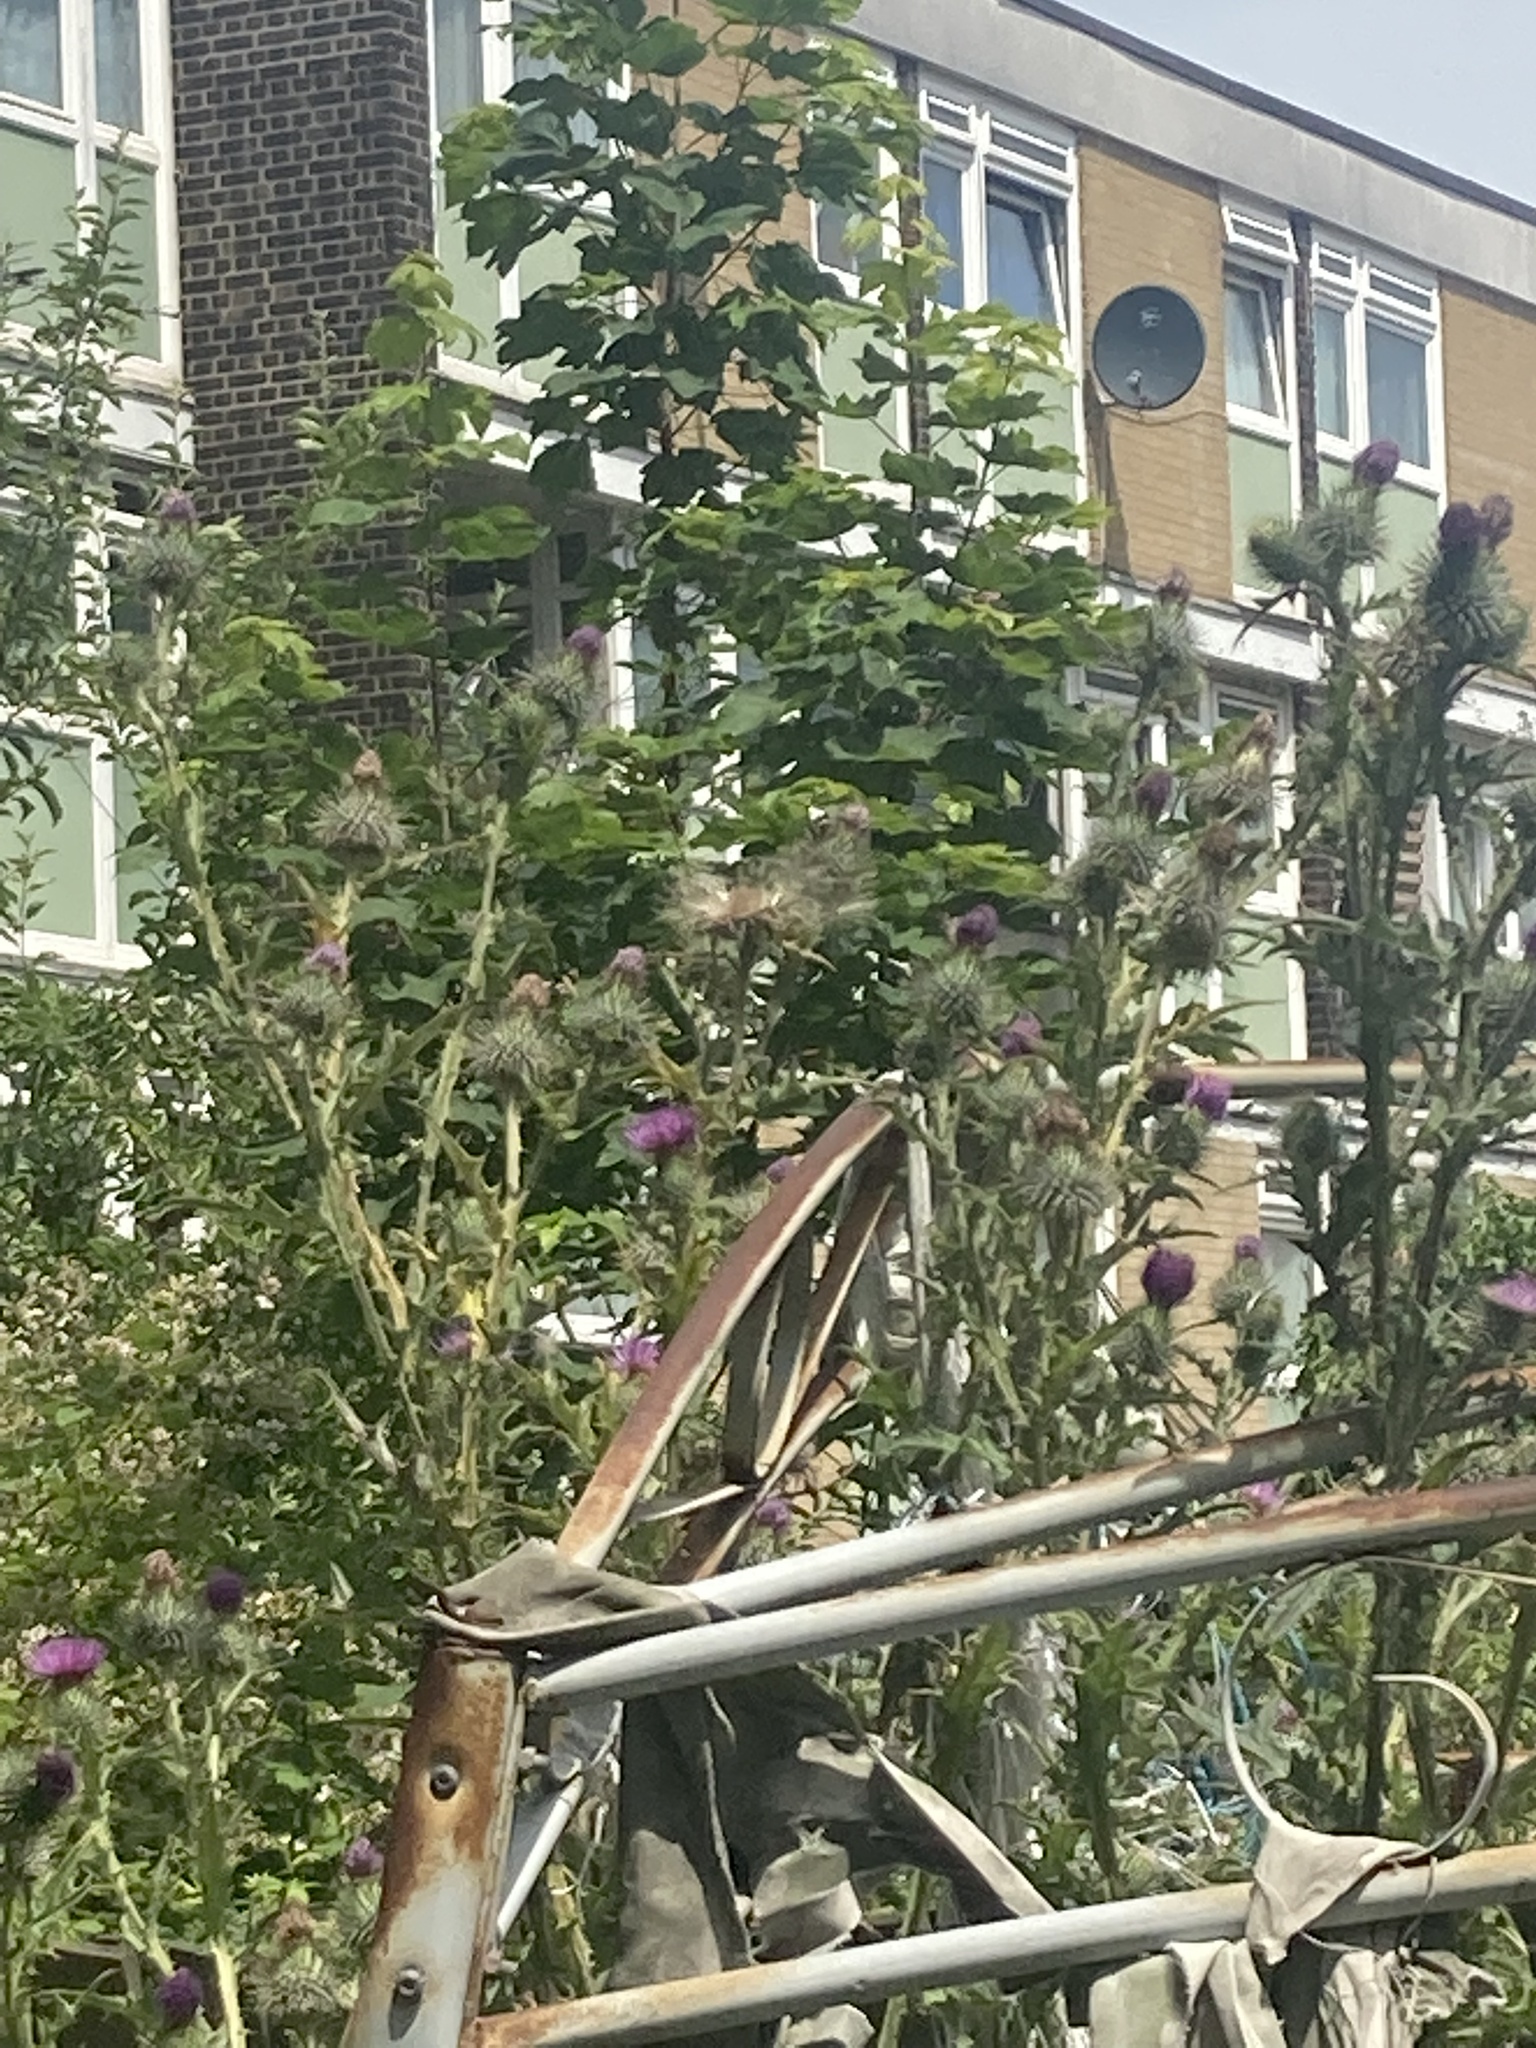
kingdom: Plantae
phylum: Tracheophyta
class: Magnoliopsida
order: Asterales
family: Asteraceae
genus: Cirsium
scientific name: Cirsium vulgare
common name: Bull thistle
